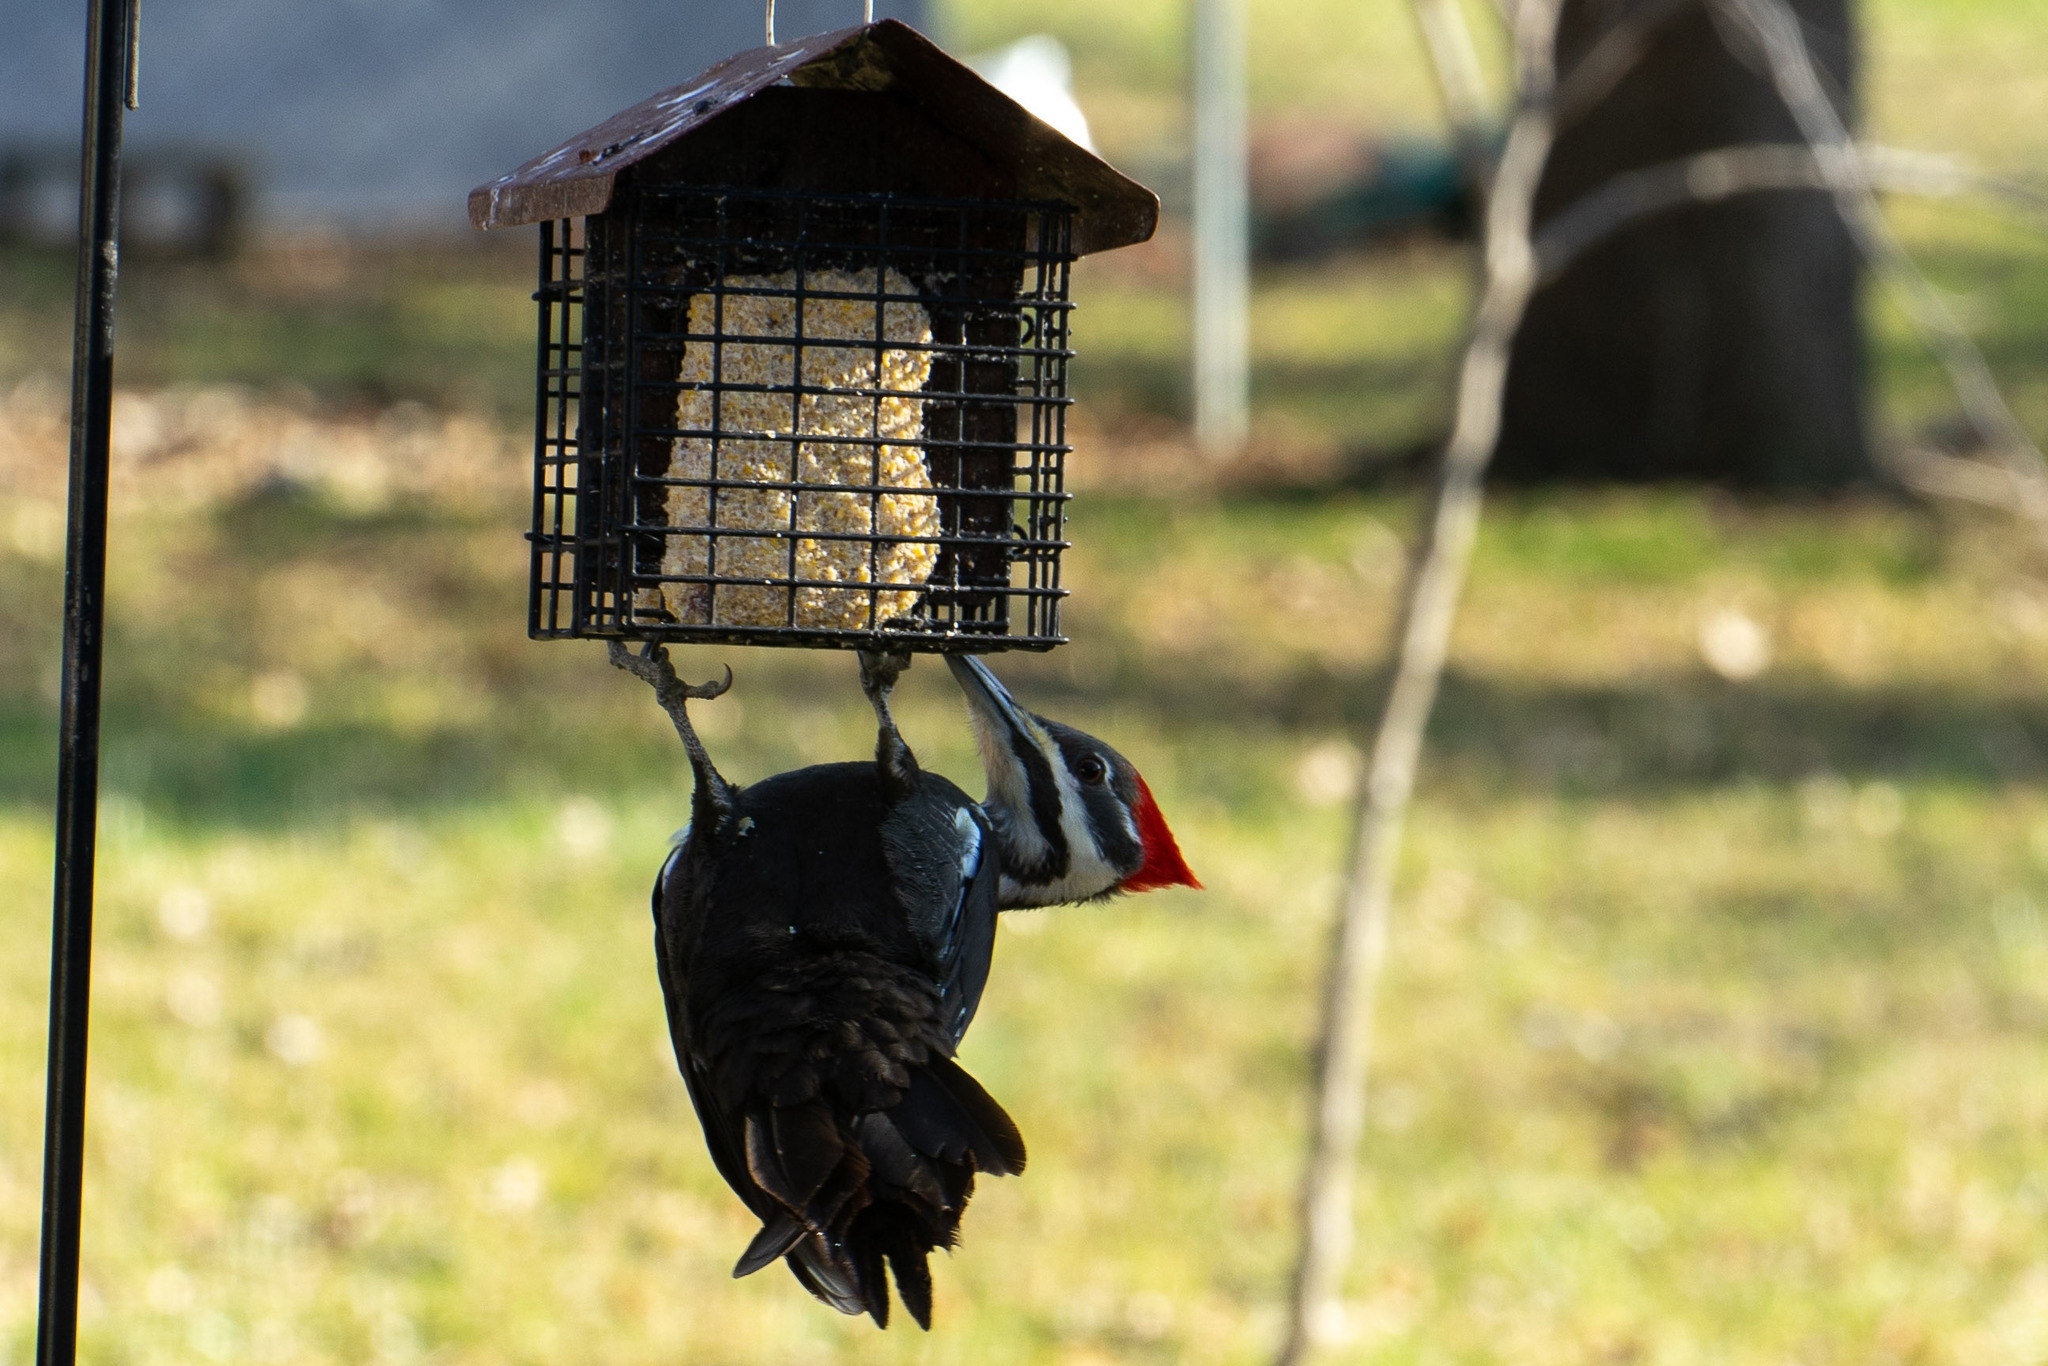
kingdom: Animalia
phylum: Chordata
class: Aves
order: Piciformes
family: Picidae
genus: Dryocopus
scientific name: Dryocopus pileatus
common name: Pileated woodpecker
